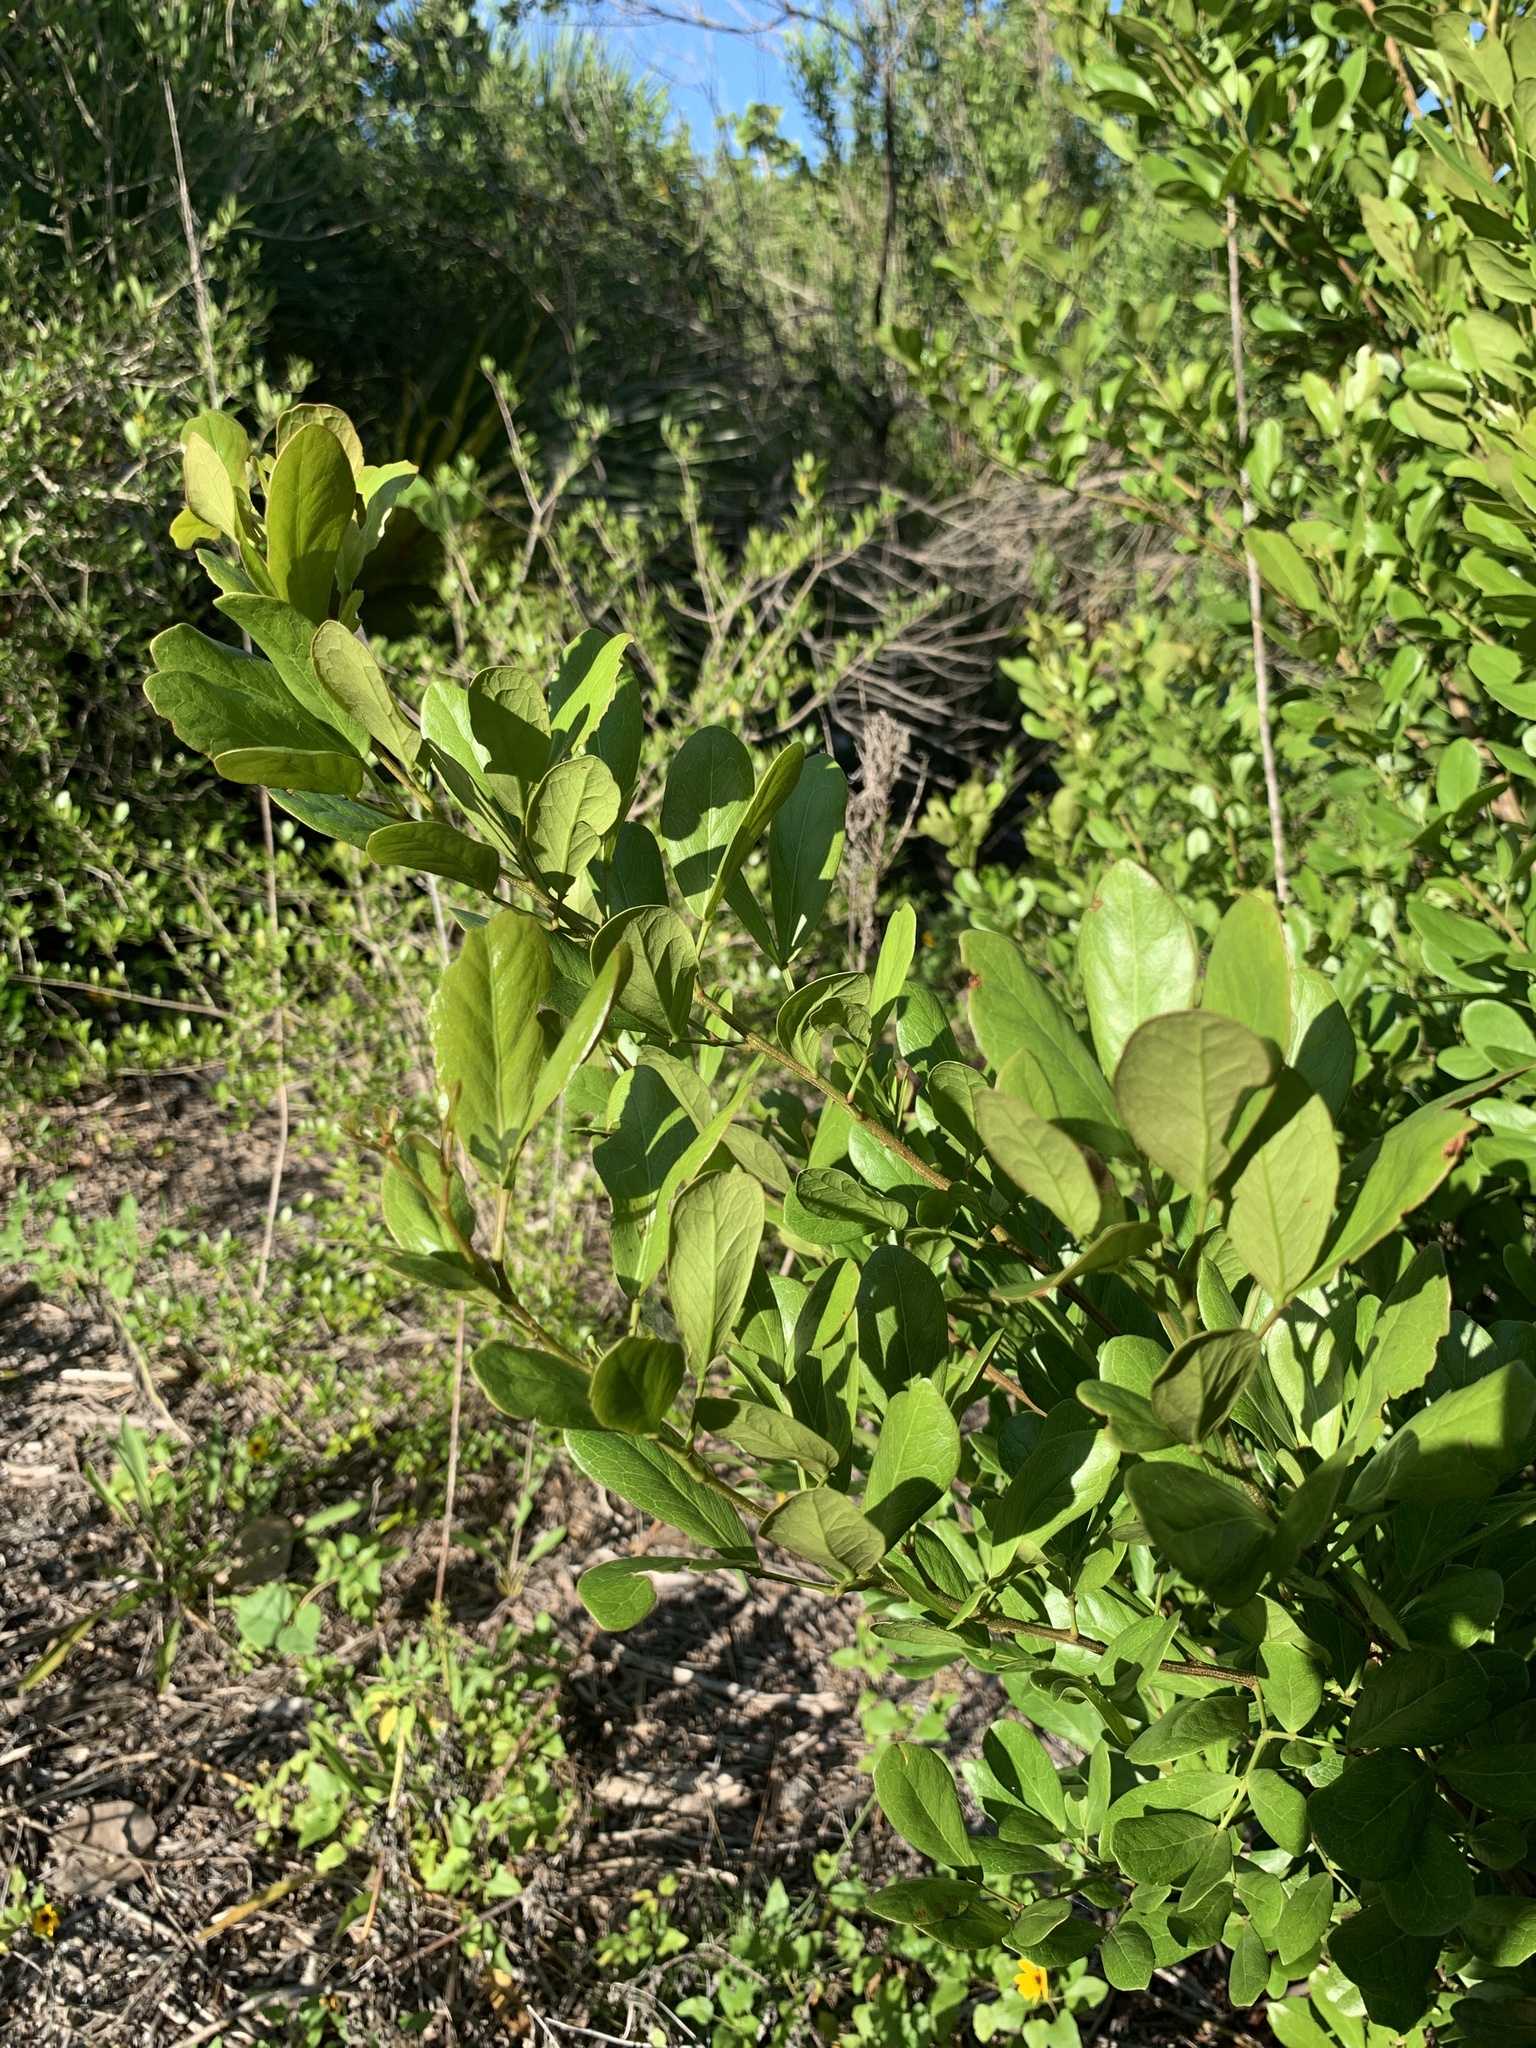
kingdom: Plantae
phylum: Tracheophyta
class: Magnoliopsida
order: Fabales
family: Fabaceae
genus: Pithecellobium
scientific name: Pithecellobium unguis-cati
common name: Cat's-claw
